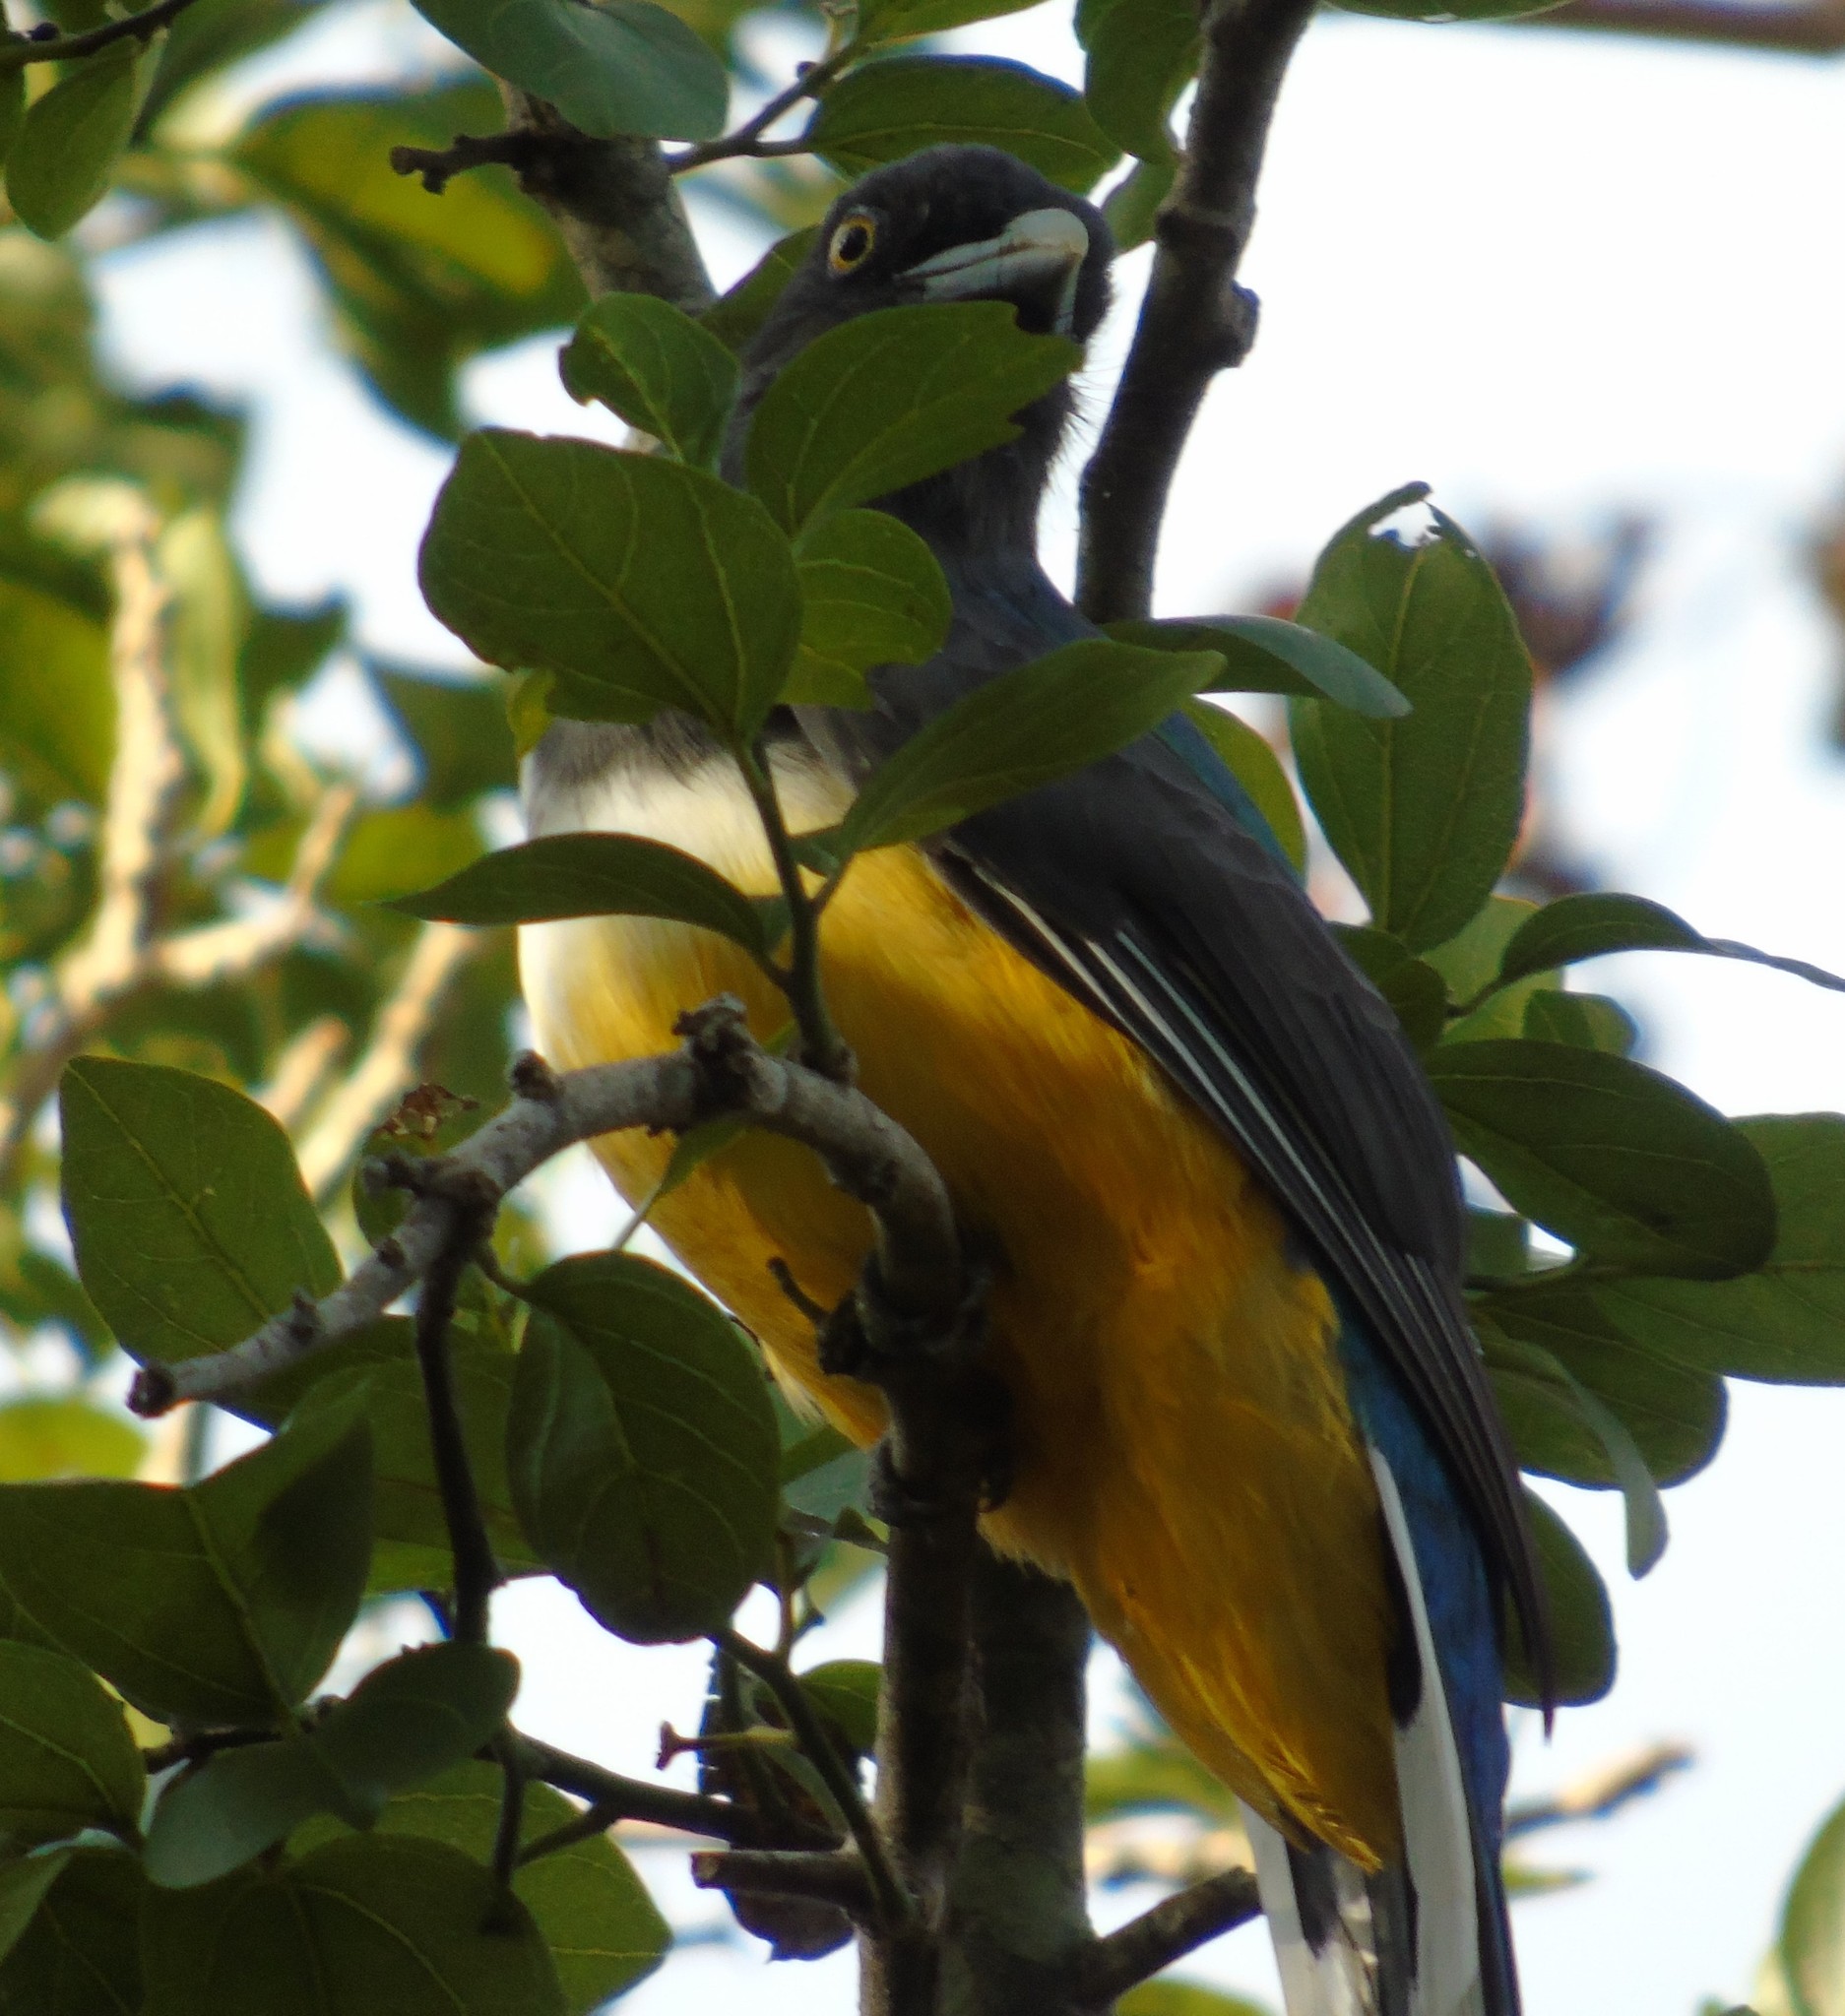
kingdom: Animalia
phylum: Chordata
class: Aves
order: Trogoniformes
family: Trogonidae
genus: Trogon
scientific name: Trogon citreolus
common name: Citreoline trogon
